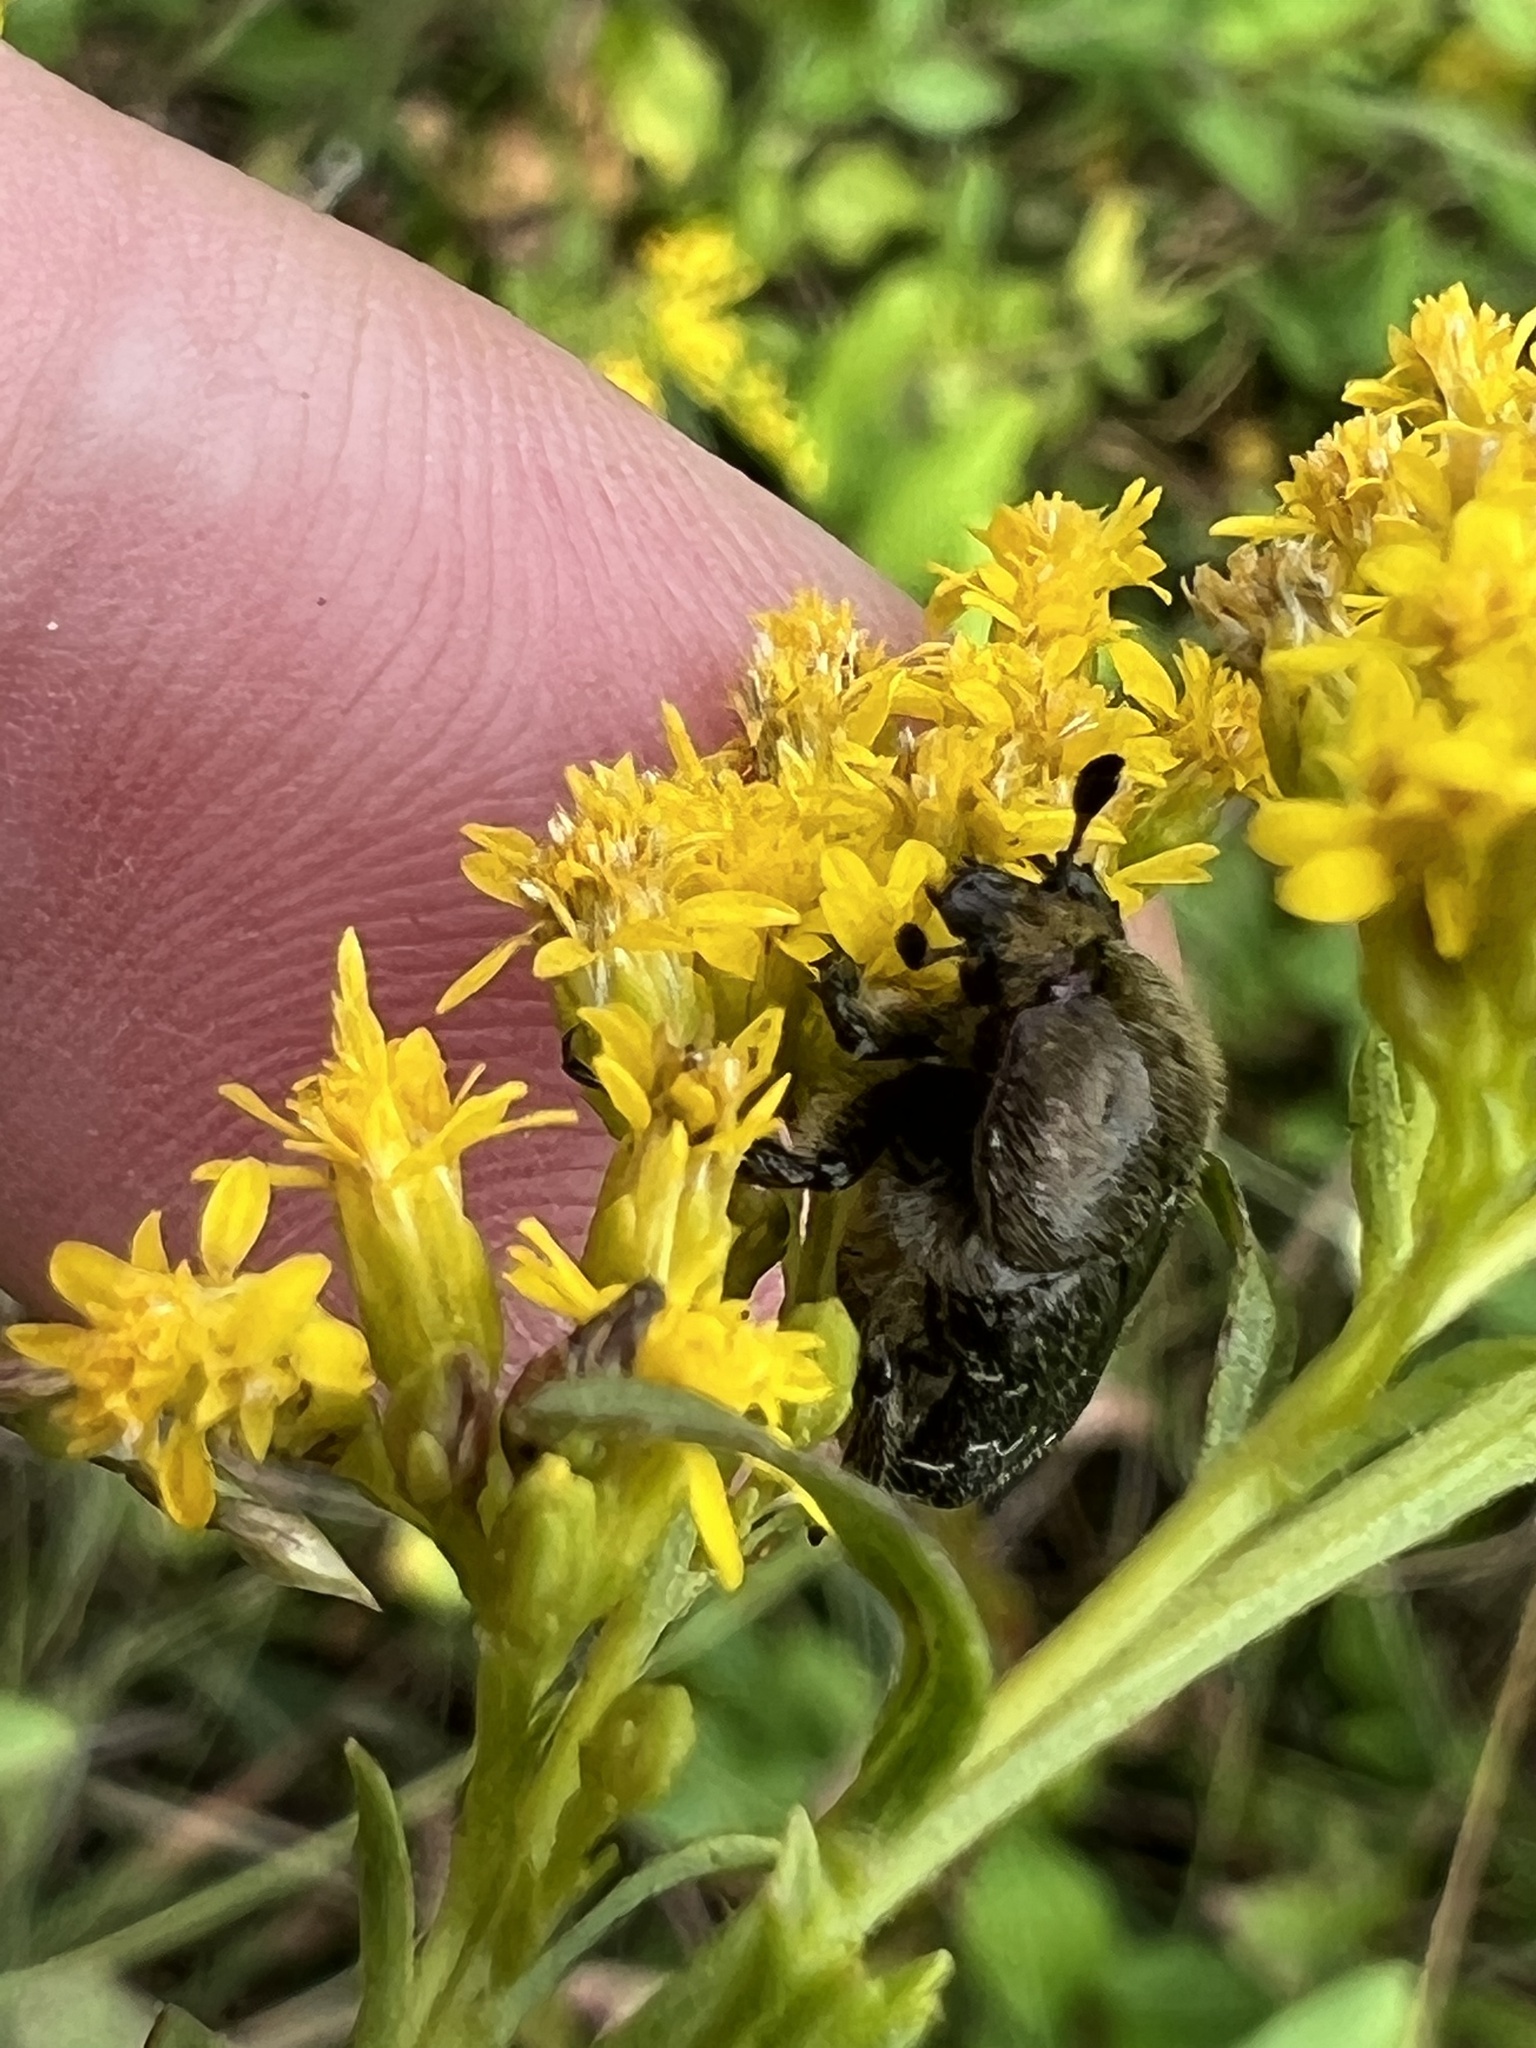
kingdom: Animalia
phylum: Arthropoda
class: Insecta
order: Coleoptera
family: Scarabaeidae
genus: Euphoria
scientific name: Euphoria sepulcralis
